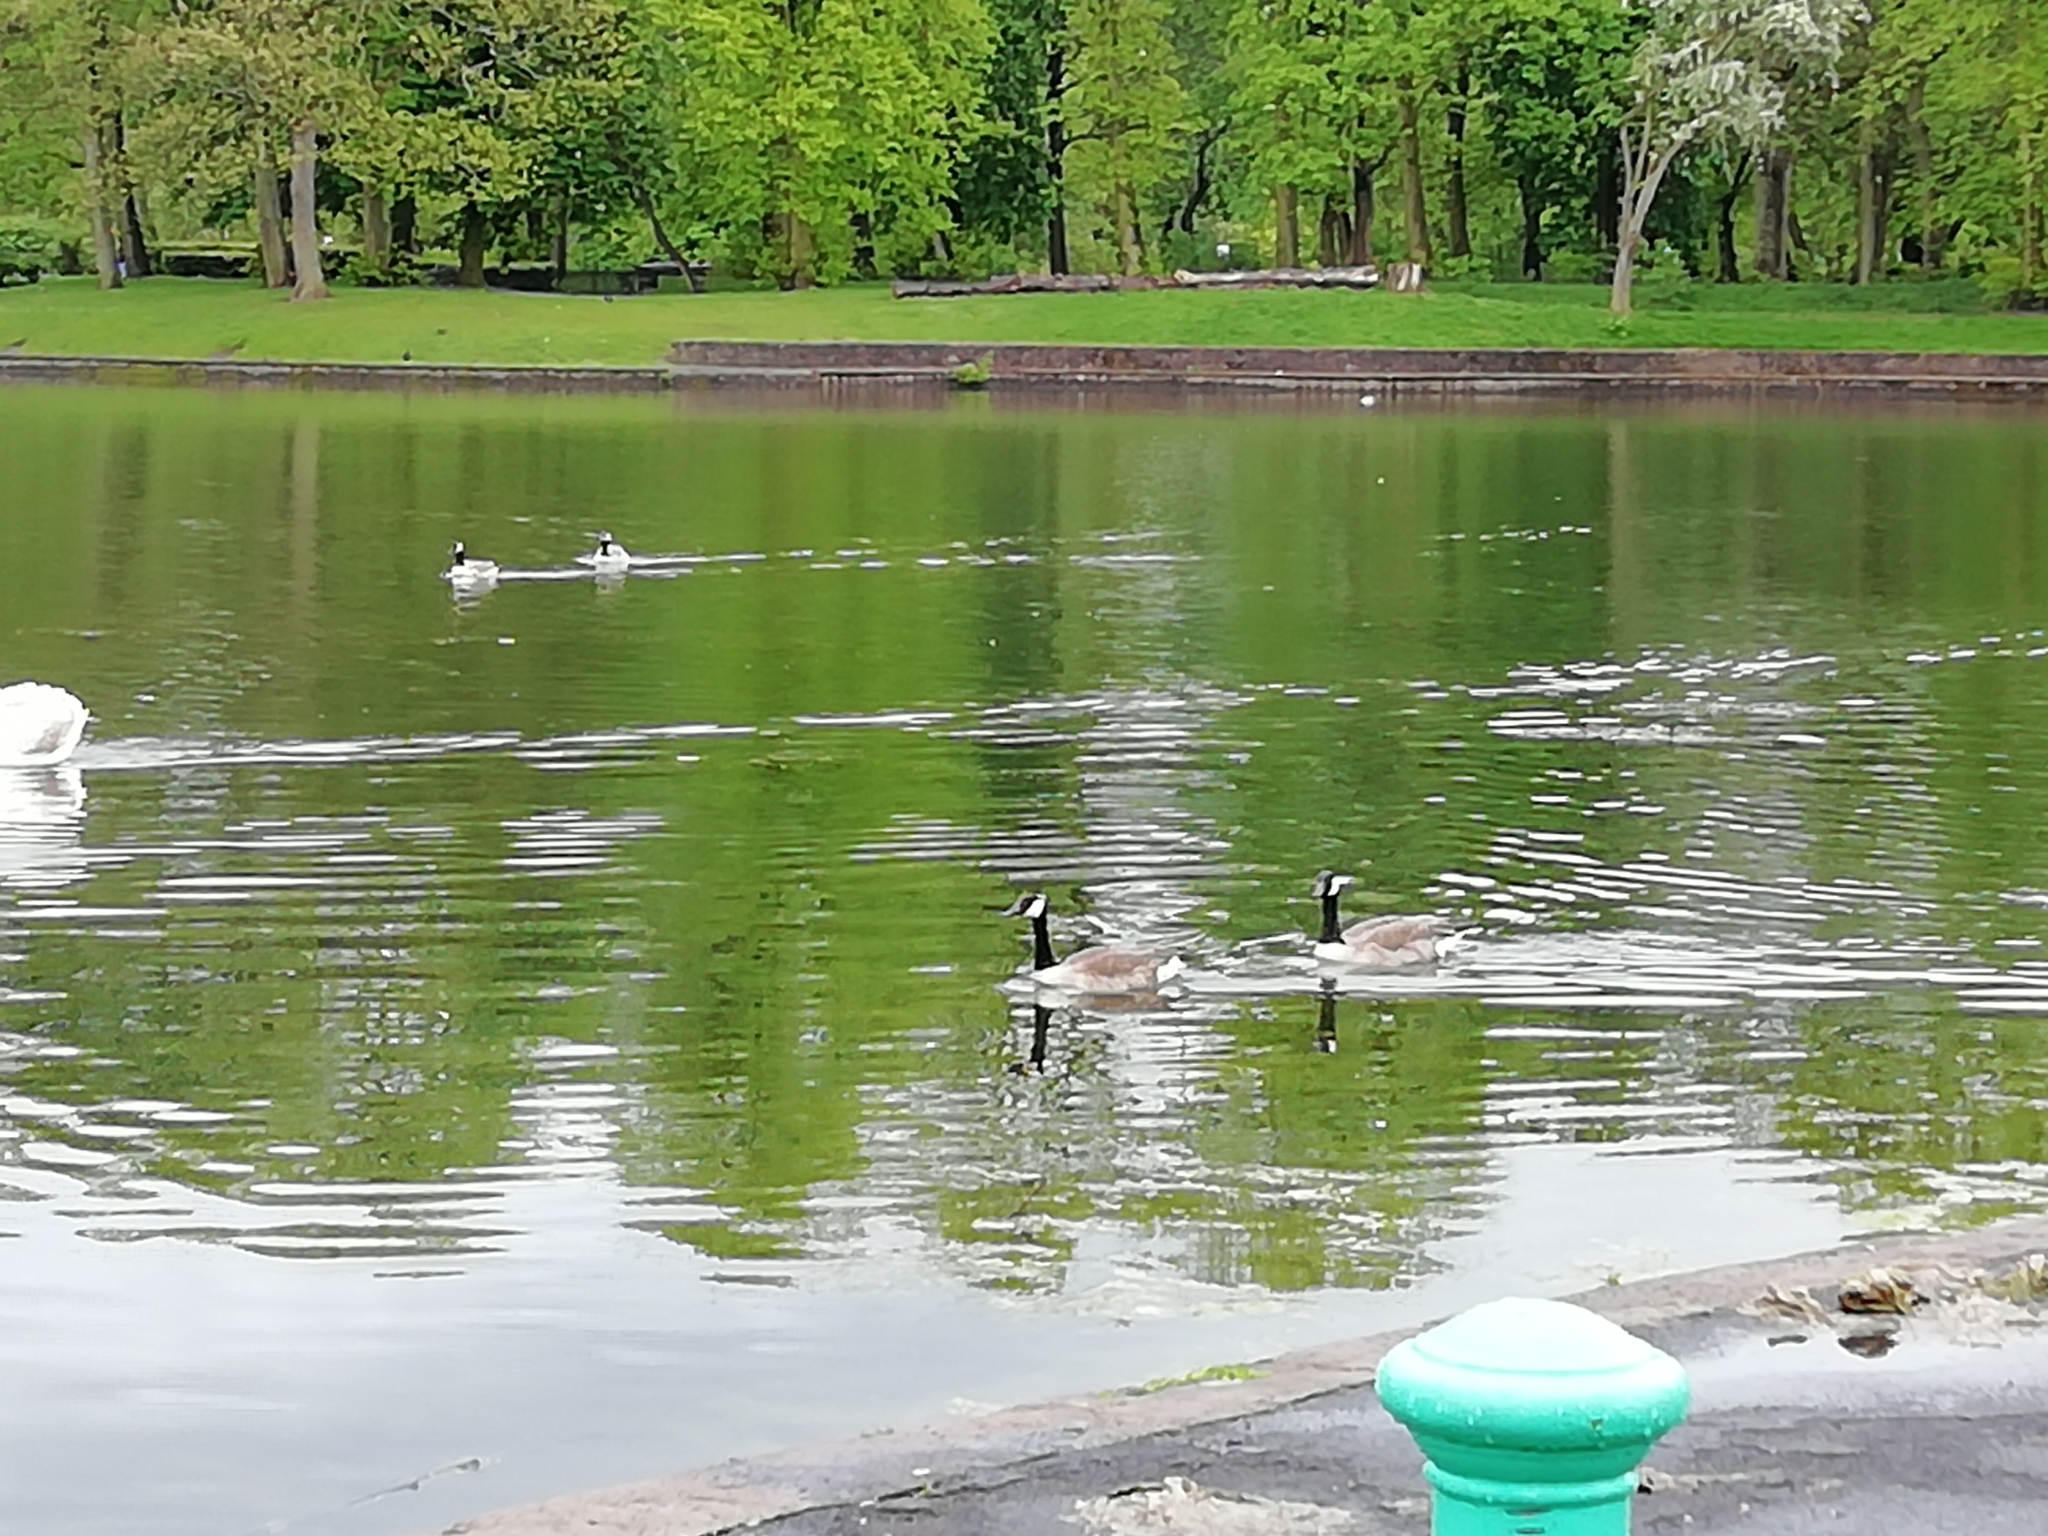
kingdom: Animalia
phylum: Chordata
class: Aves
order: Anseriformes
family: Anatidae
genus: Branta
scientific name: Branta canadensis
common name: Canada goose
